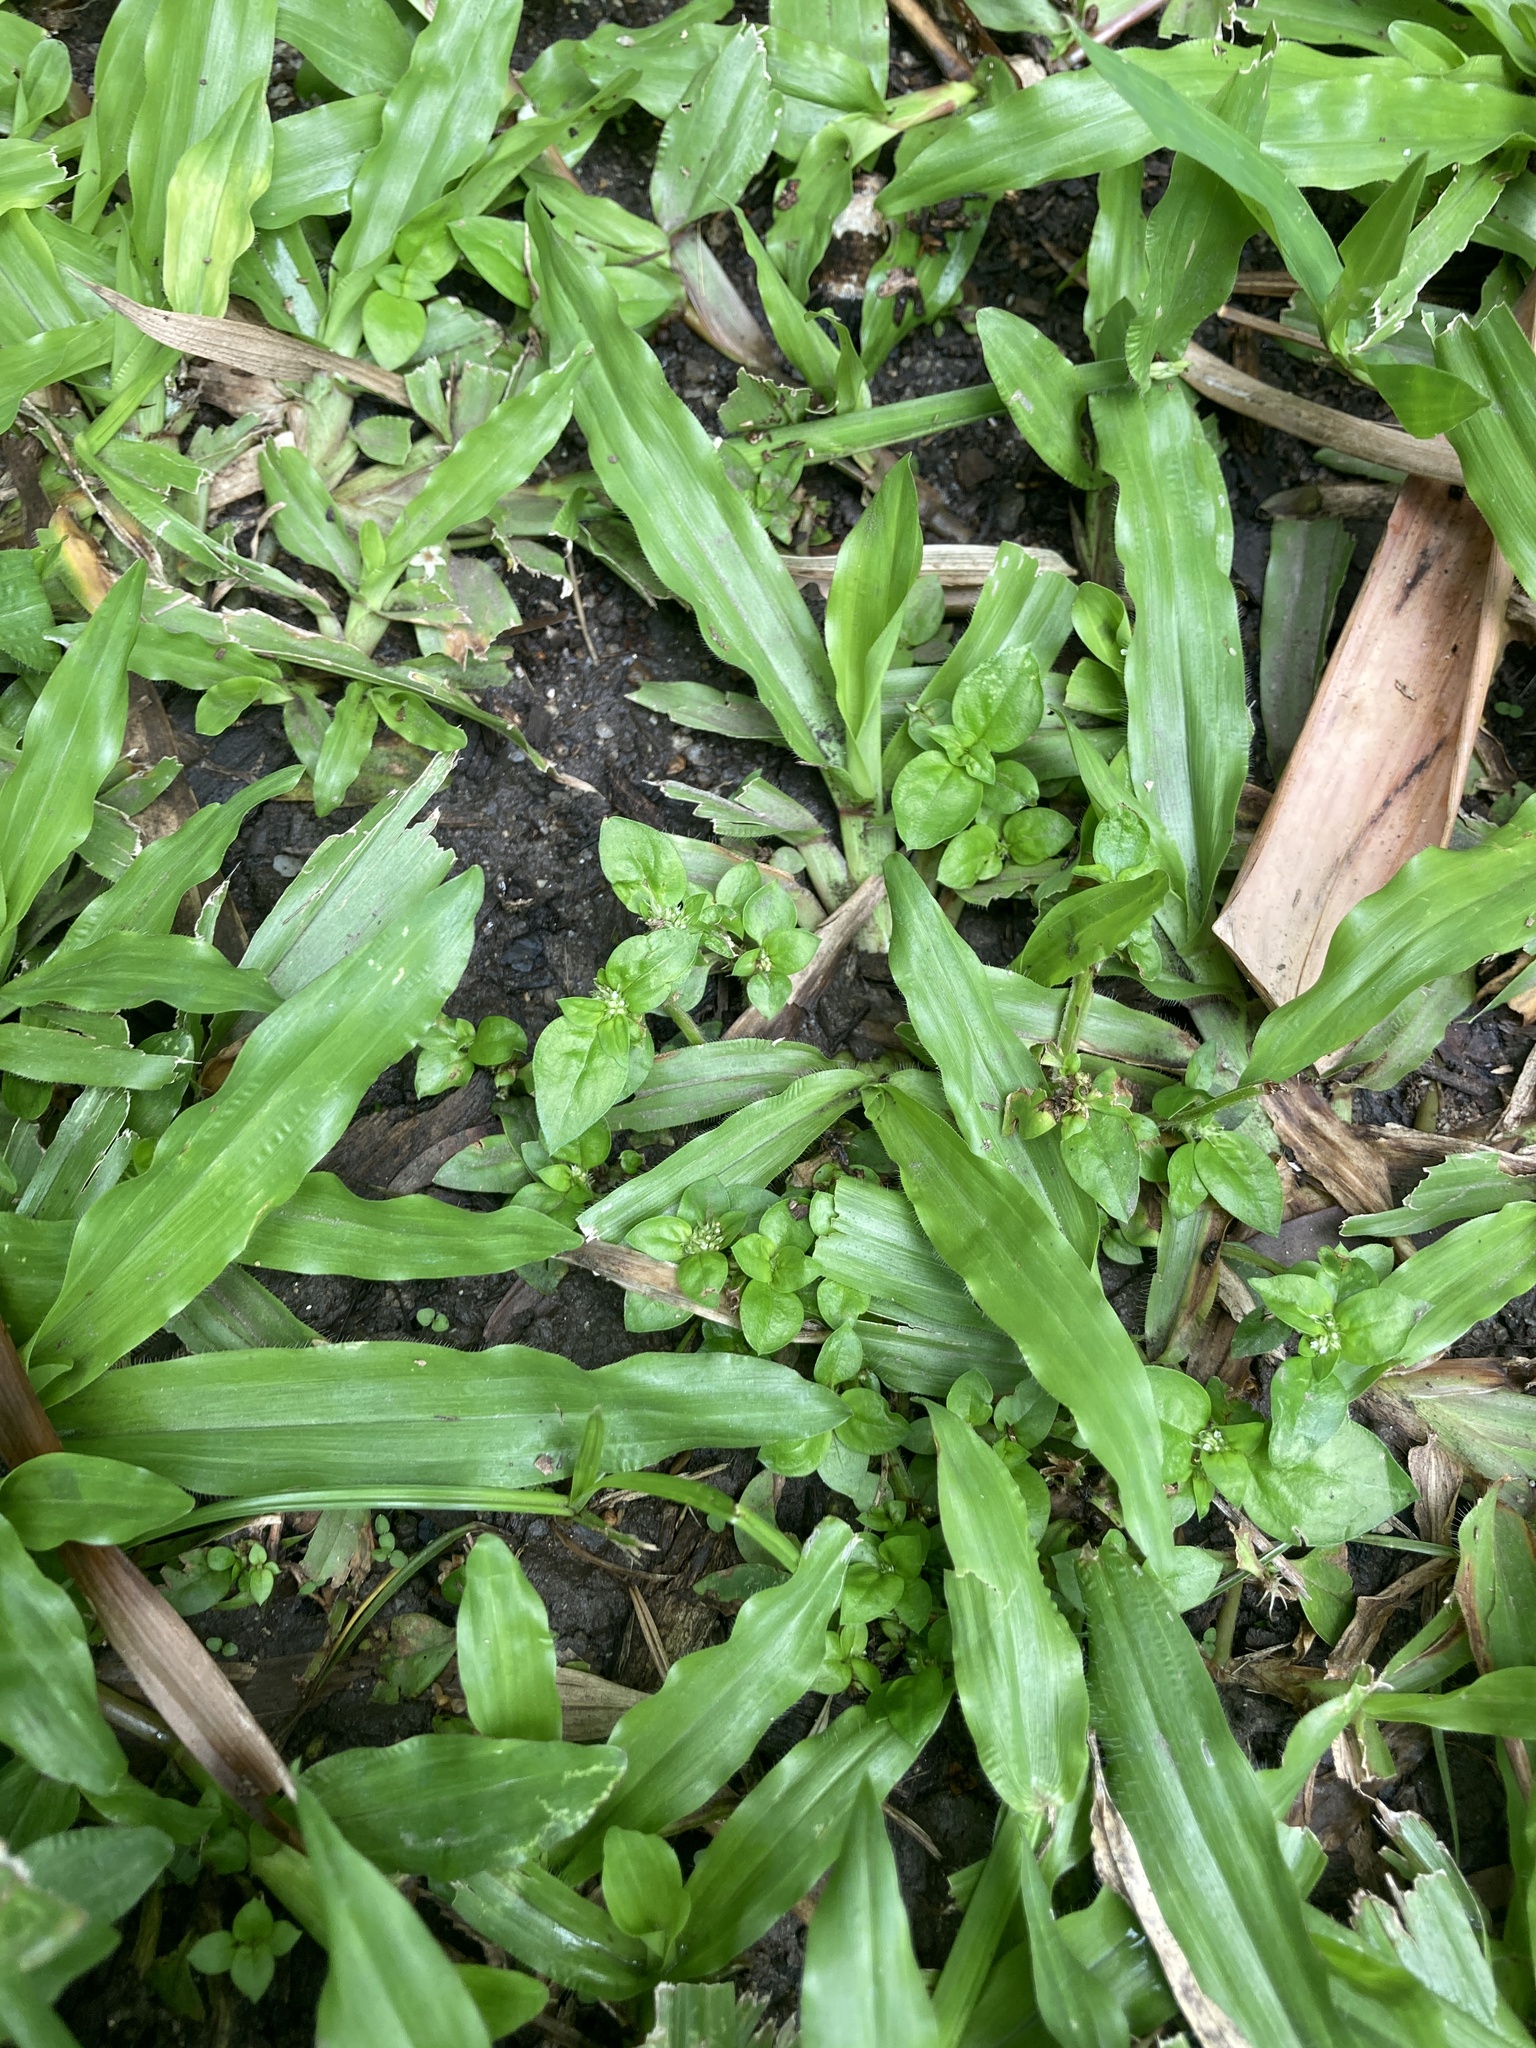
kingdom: Plantae
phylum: Tracheophyta
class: Liliopsida
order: Poales
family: Poaceae
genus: Axonopus
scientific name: Axonopus compressus
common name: American carpet grass
